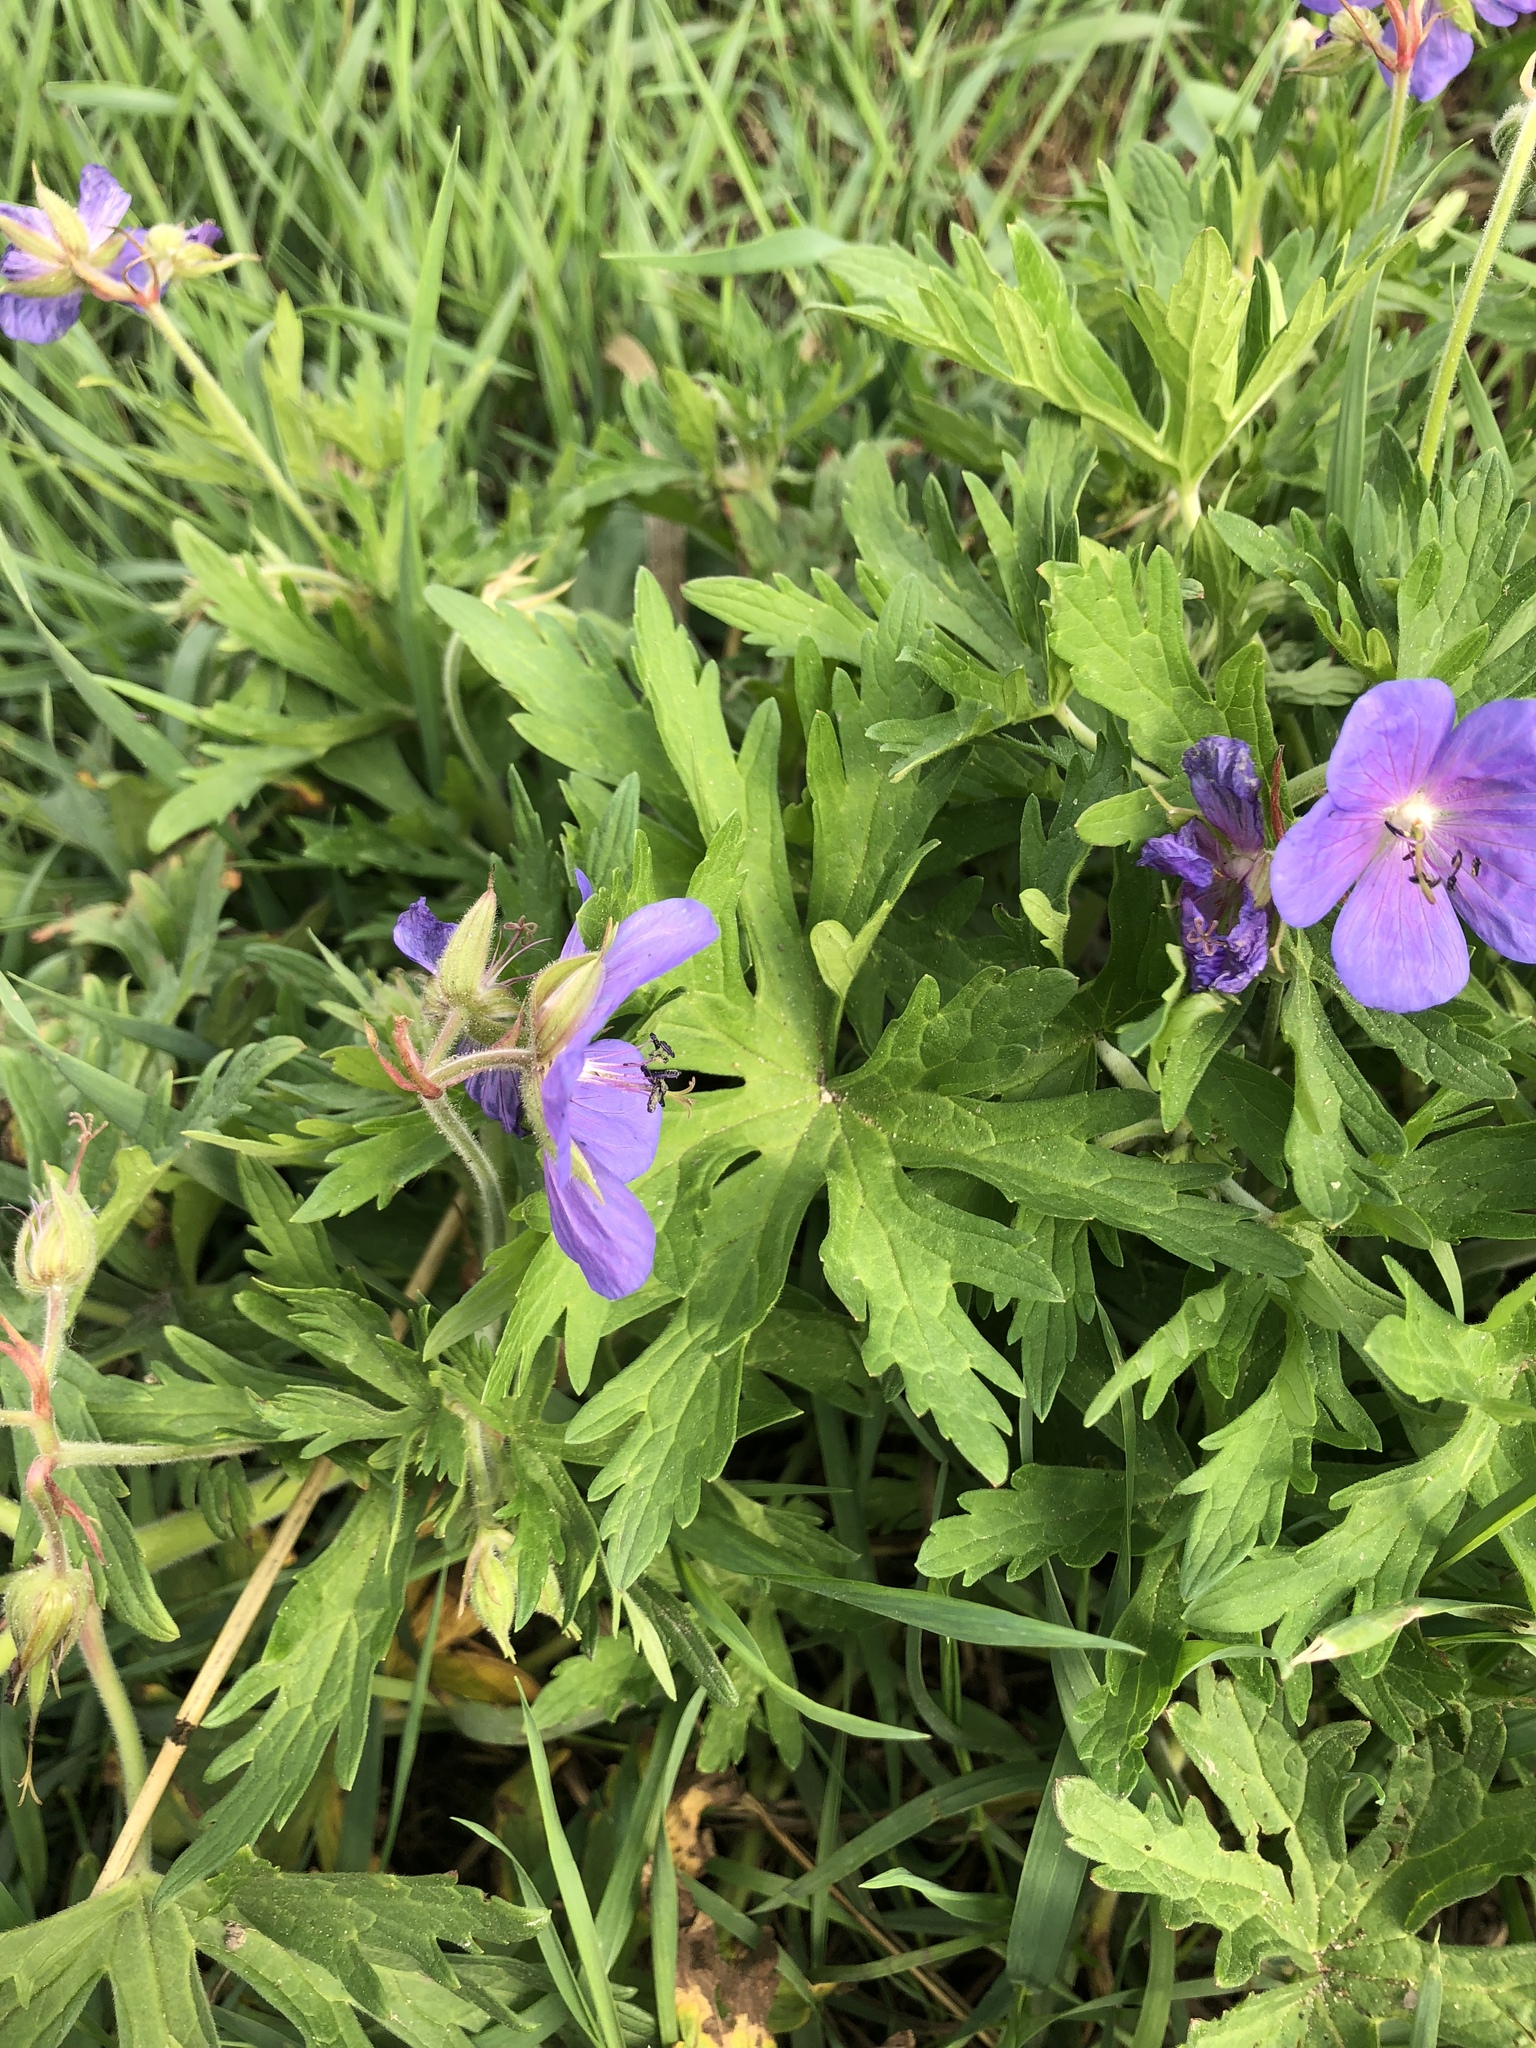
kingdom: Plantae
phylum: Tracheophyta
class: Magnoliopsida
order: Geraniales
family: Geraniaceae
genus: Geranium
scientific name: Geranium pratense
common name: Meadow crane's-bill
